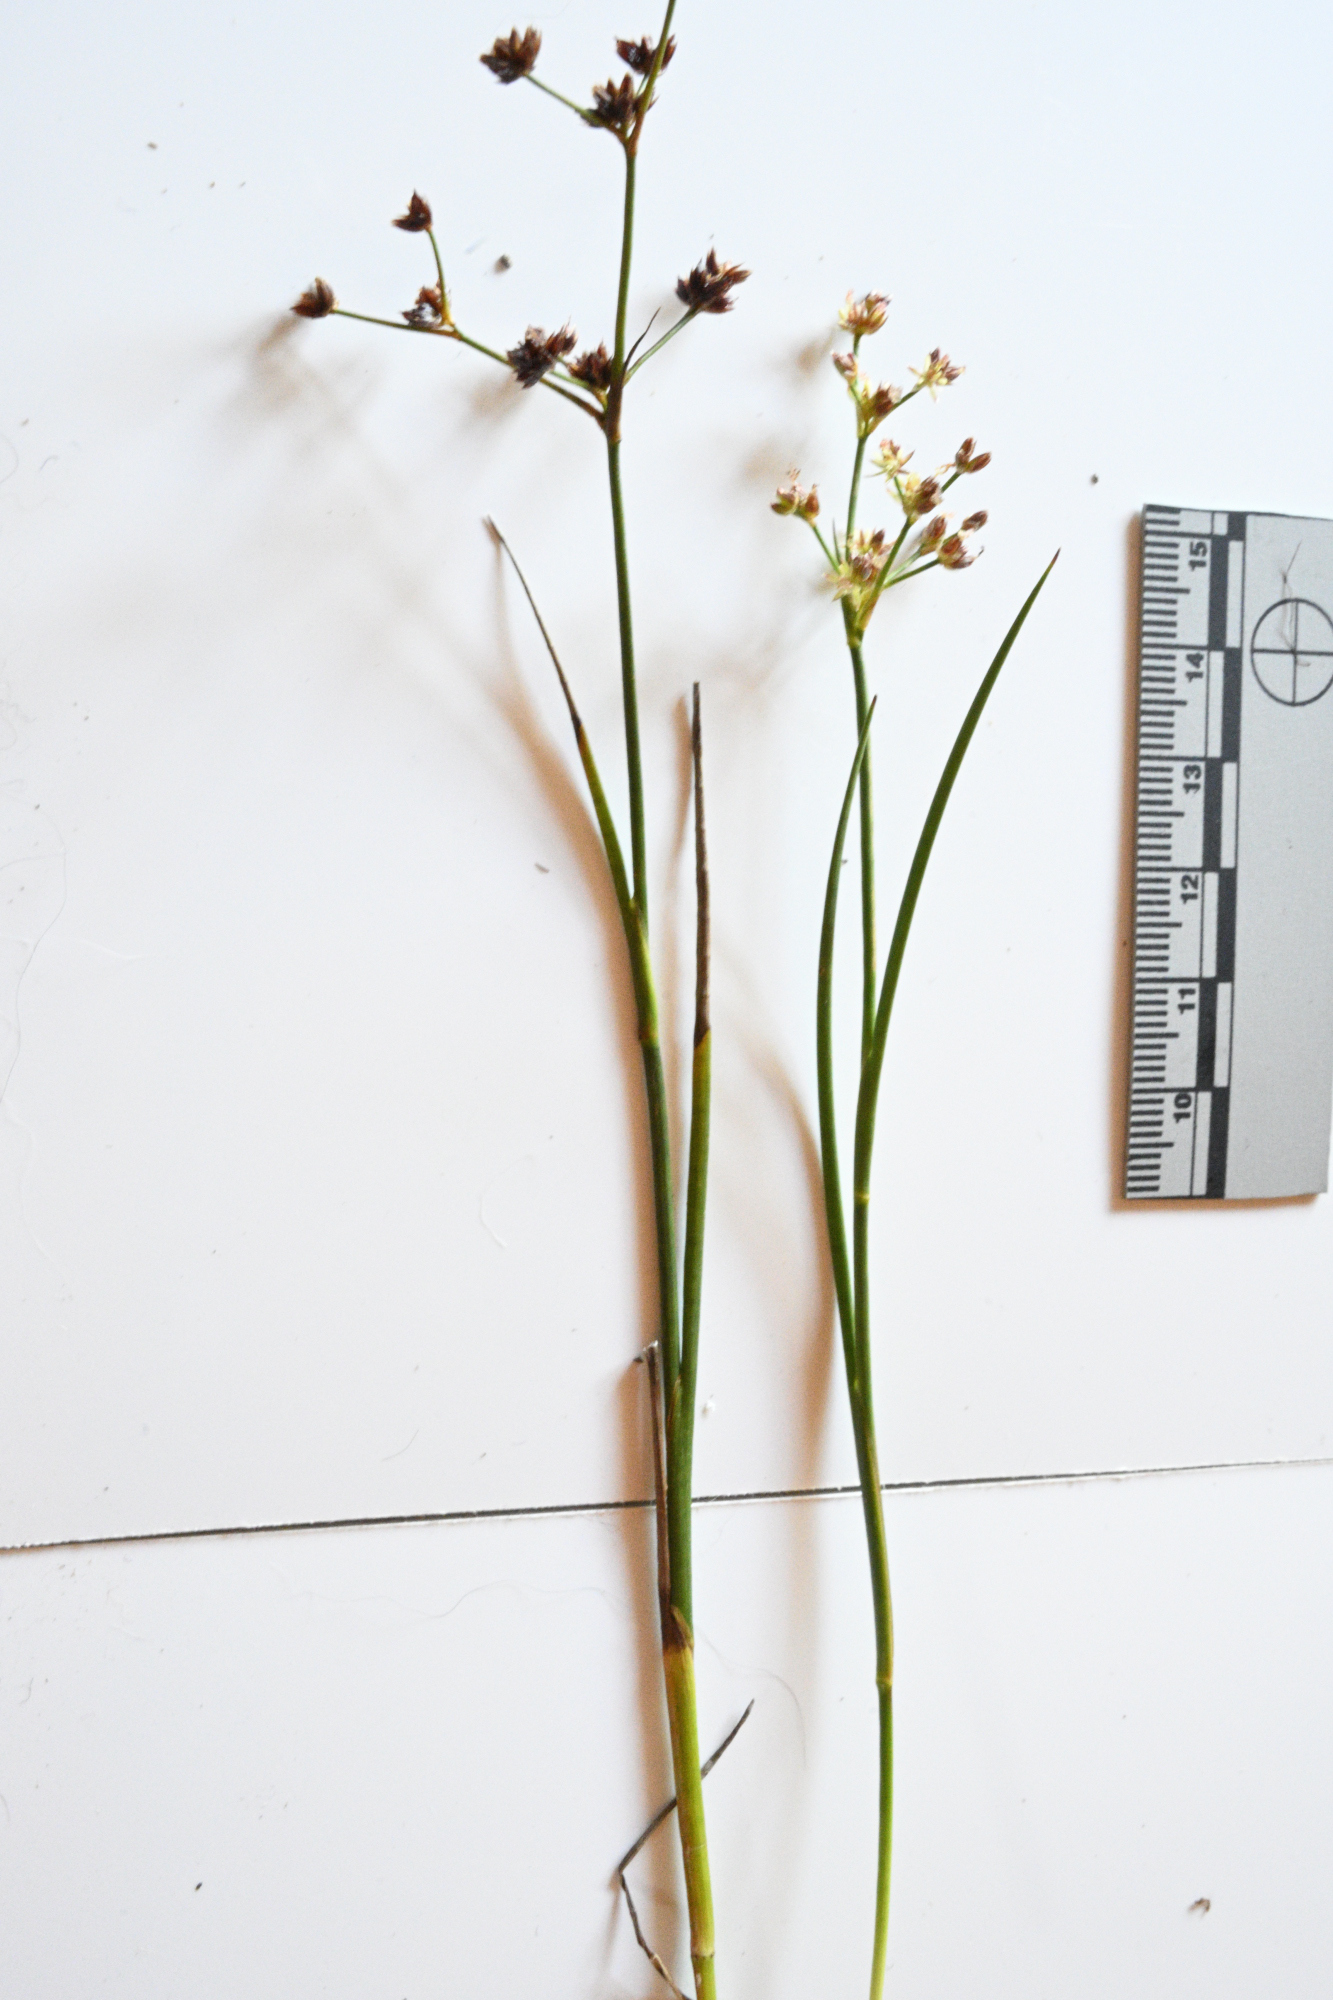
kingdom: Plantae
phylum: Tracheophyta
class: Liliopsida
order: Poales
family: Juncaceae
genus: Juncus
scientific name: Juncus articulatus
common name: Jointed rush
